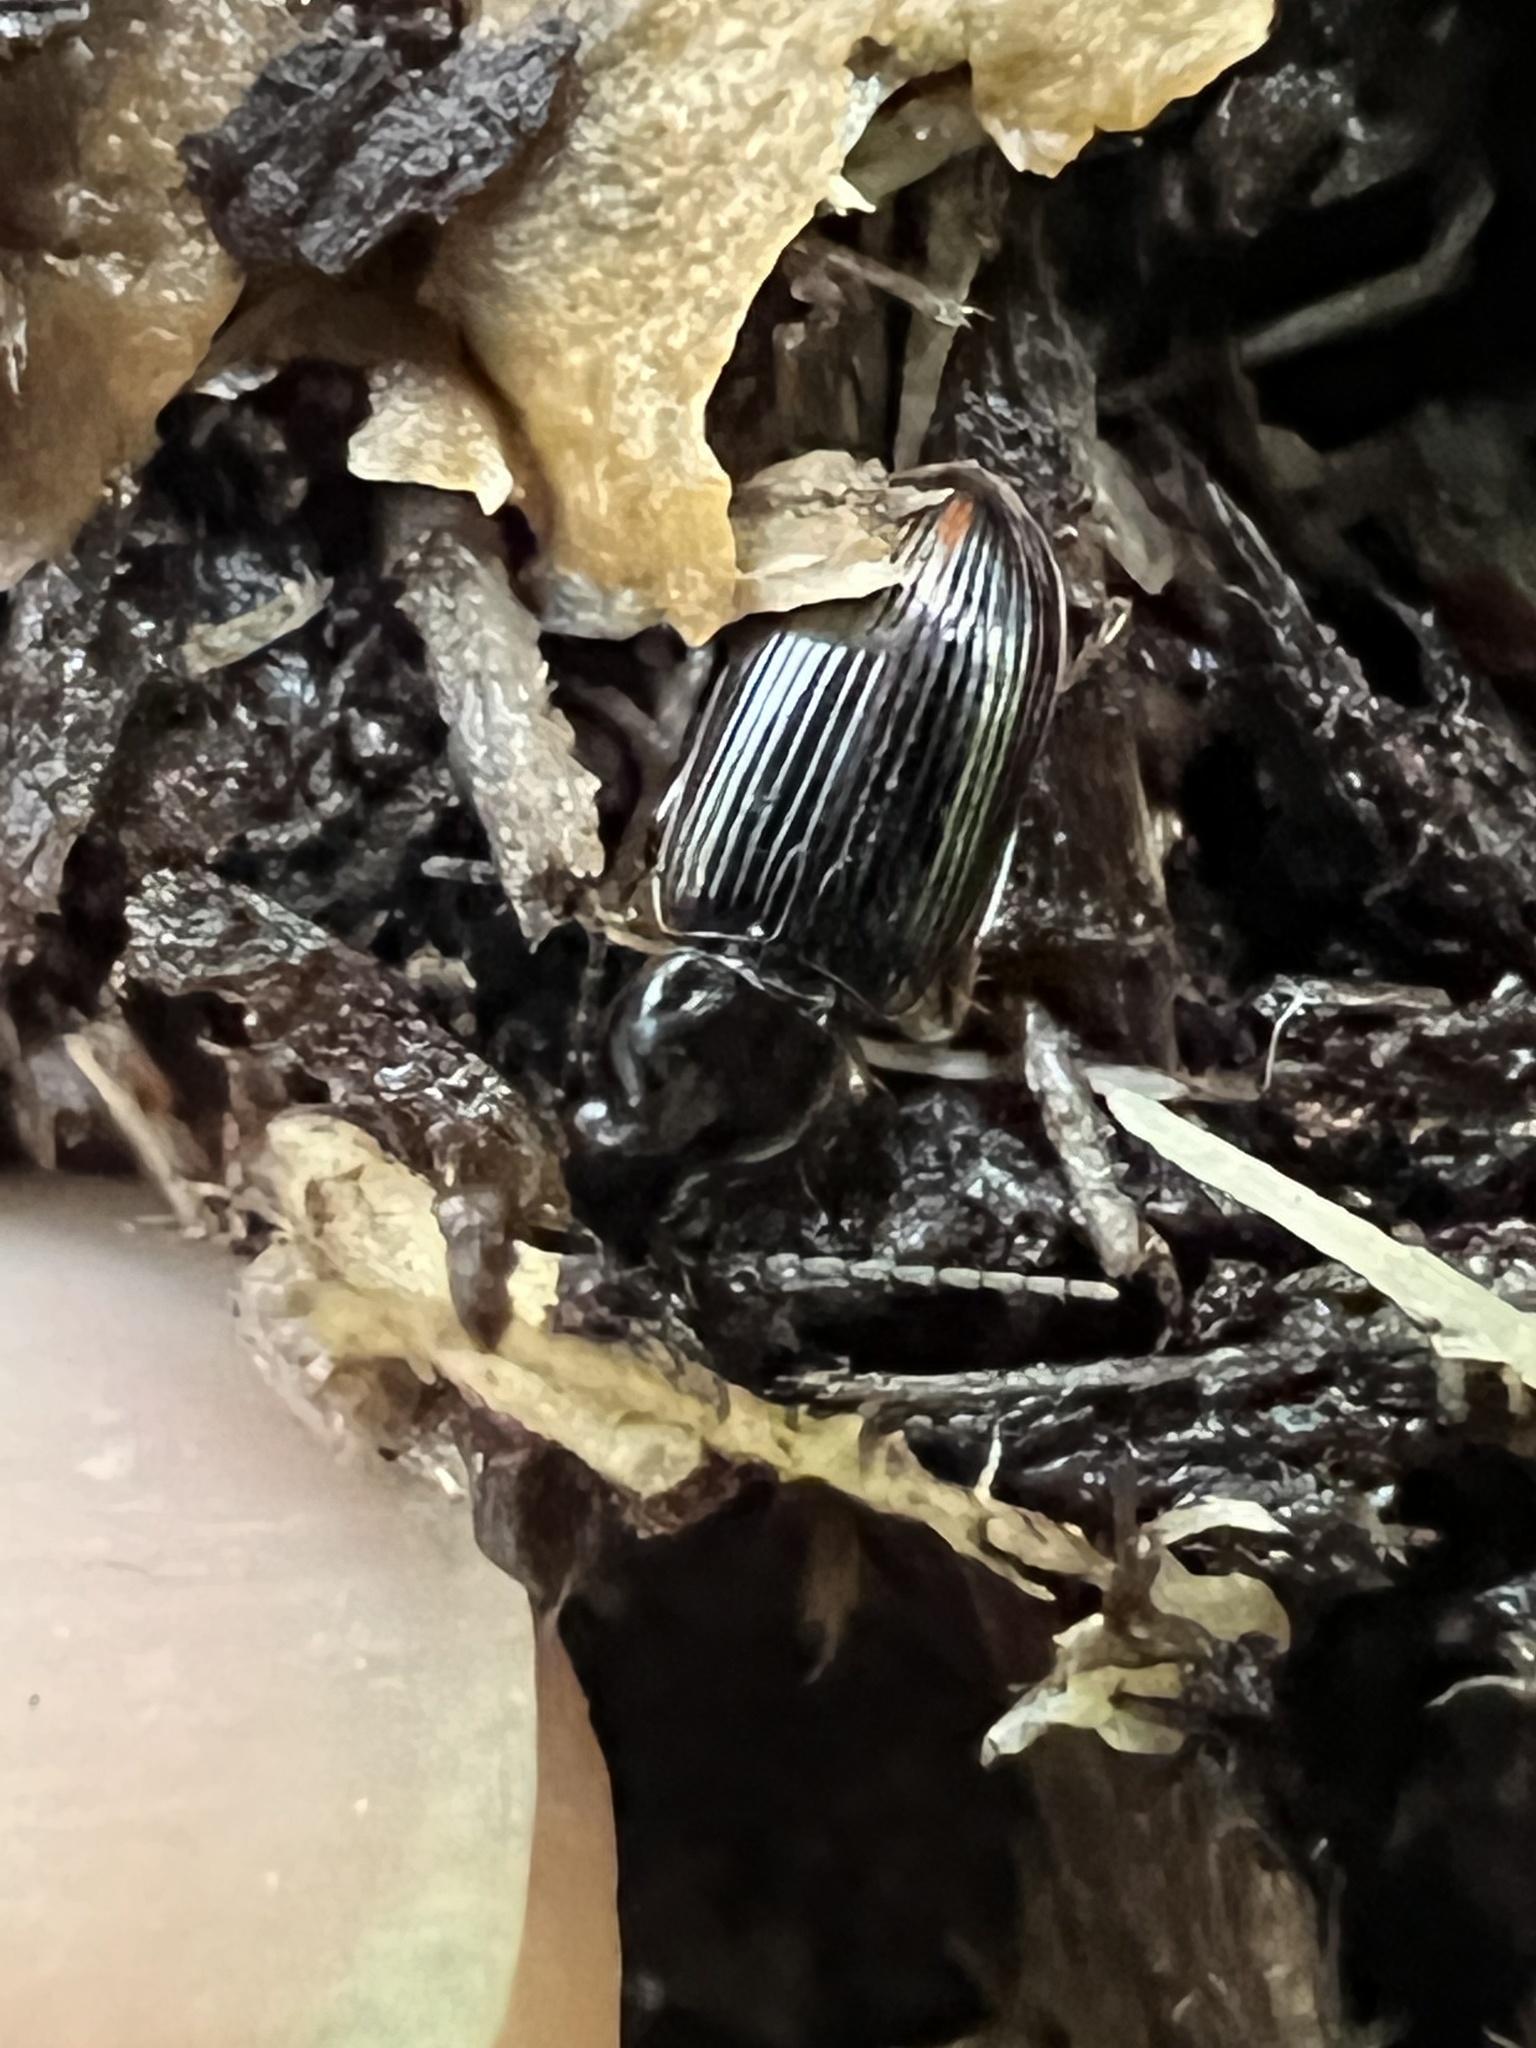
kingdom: Animalia
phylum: Arthropoda
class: Insecta
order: Coleoptera
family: Carabidae
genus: Stenolophus
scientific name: Stenolophus ochropezus
